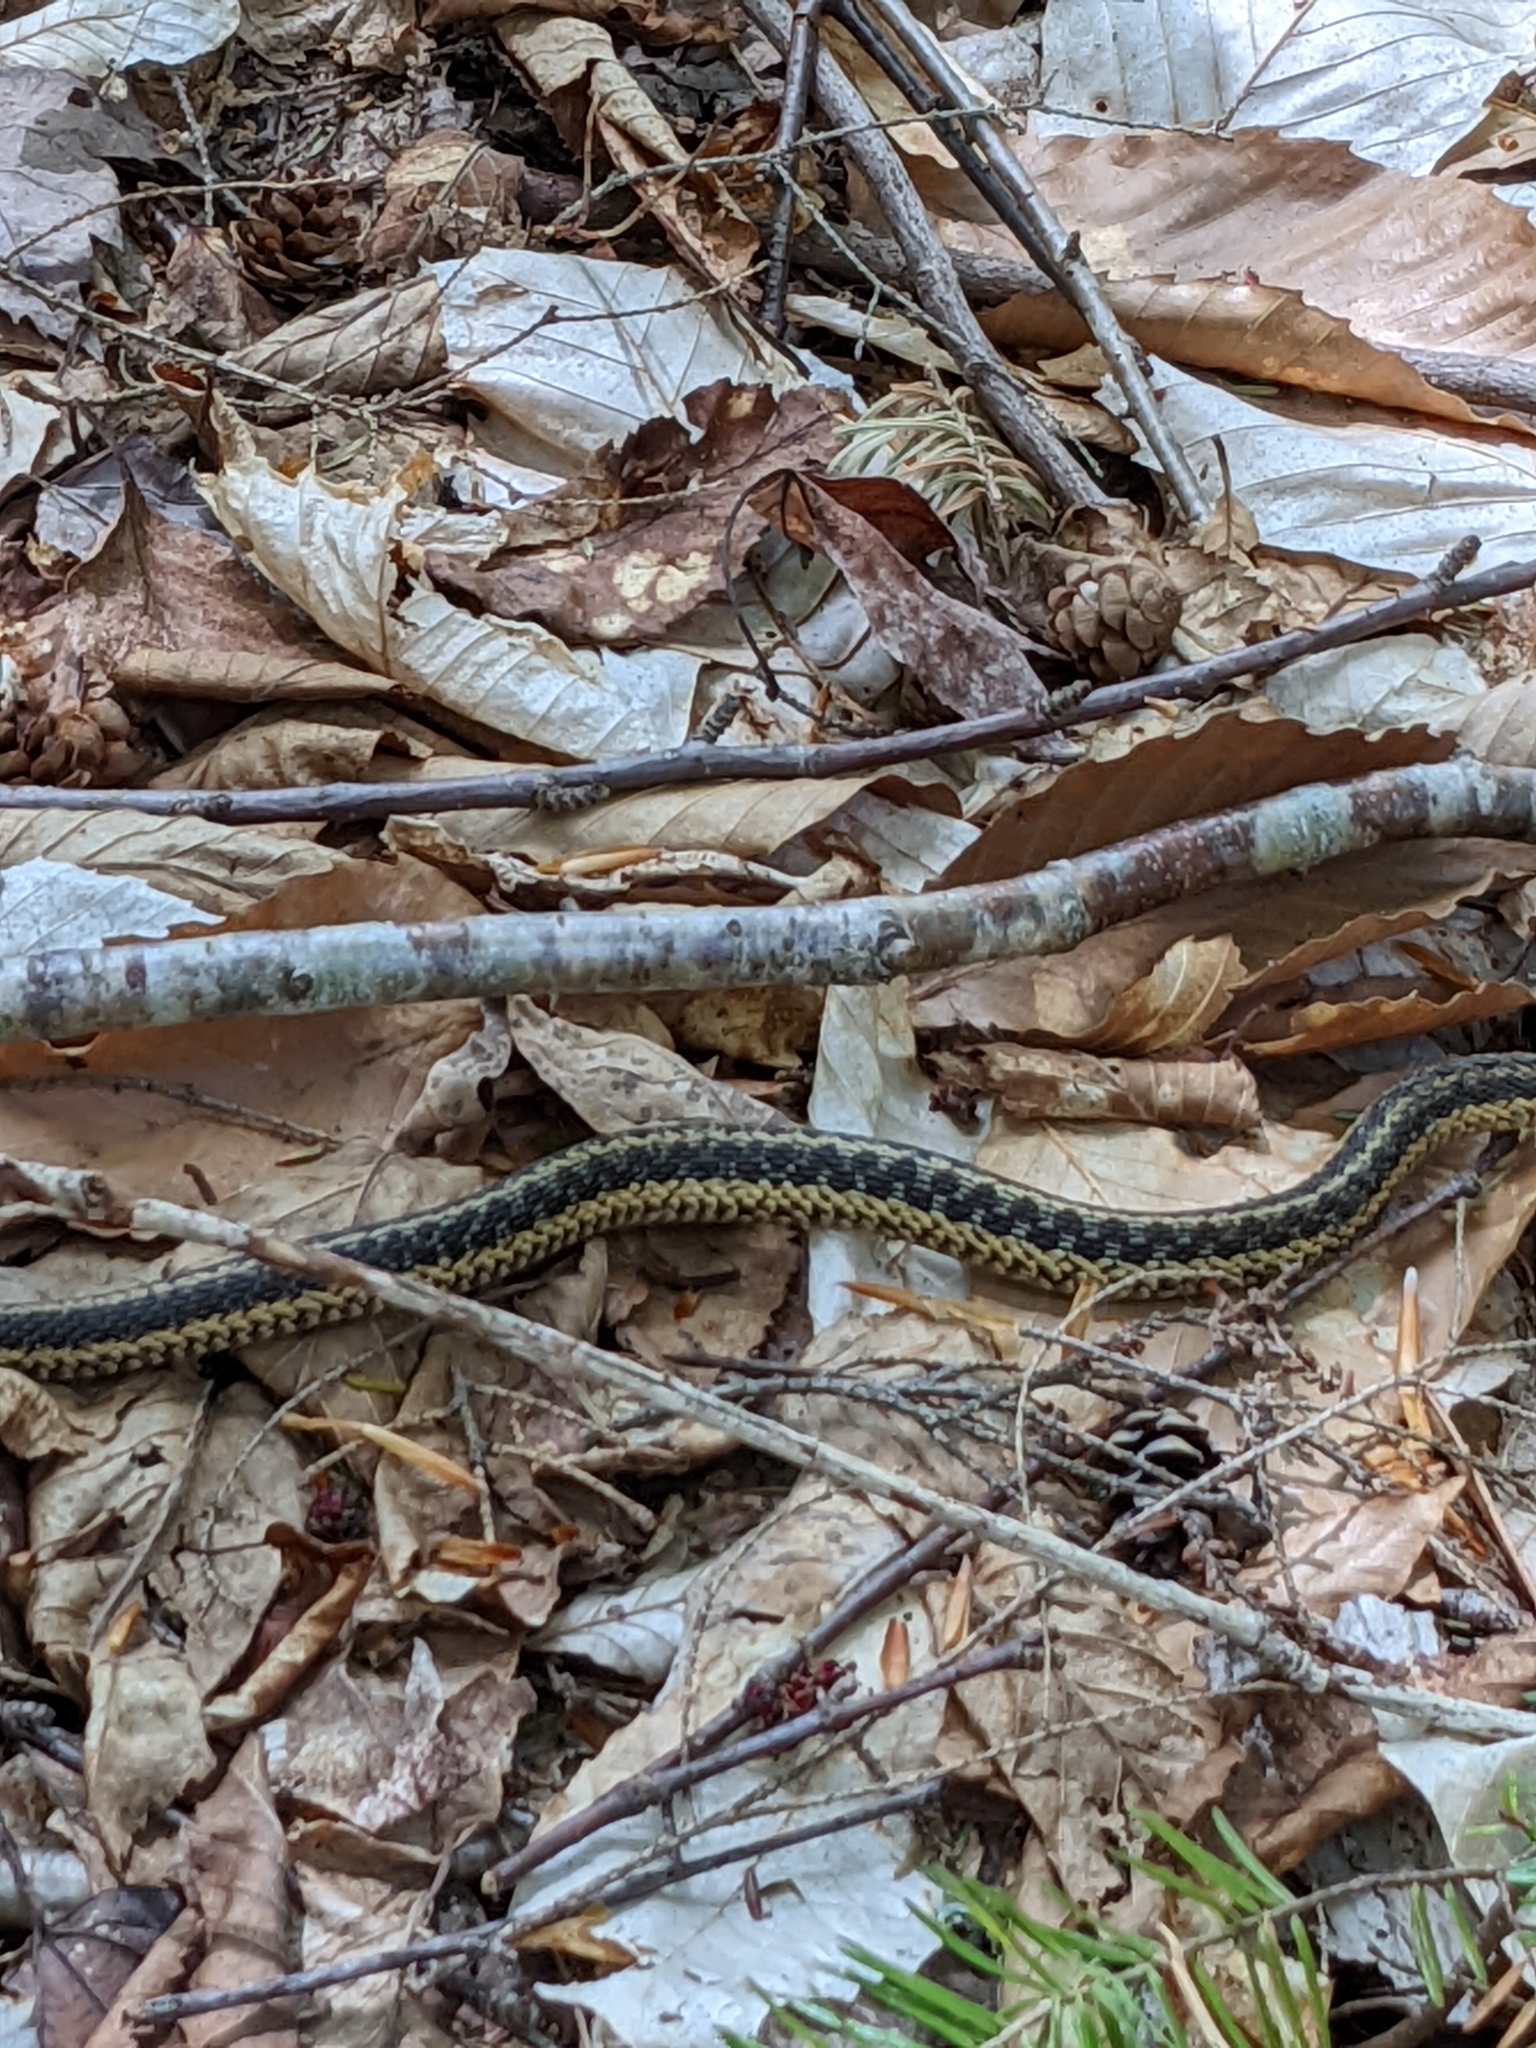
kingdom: Animalia
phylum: Chordata
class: Squamata
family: Colubridae
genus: Thamnophis
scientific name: Thamnophis sirtalis
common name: Common garter snake
